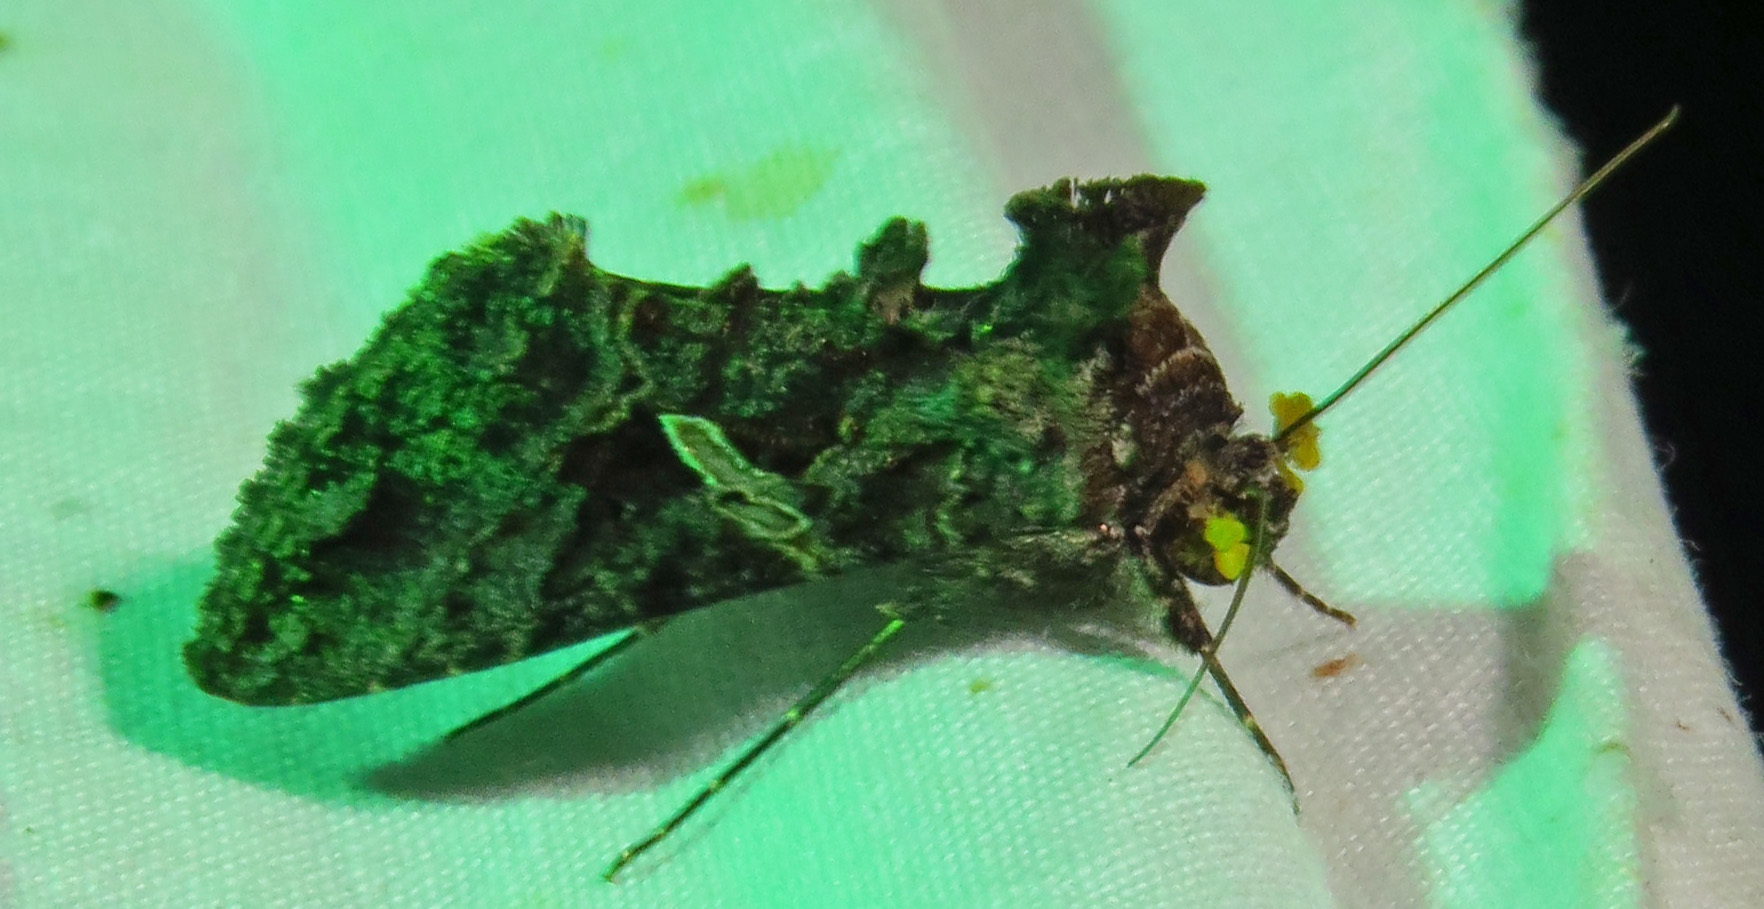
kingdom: Animalia
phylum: Arthropoda
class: Insecta
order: Lepidoptera
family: Noctuidae
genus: Ctenoplusia
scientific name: Ctenoplusia oxygramma
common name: Sharp-stigma looper moth
